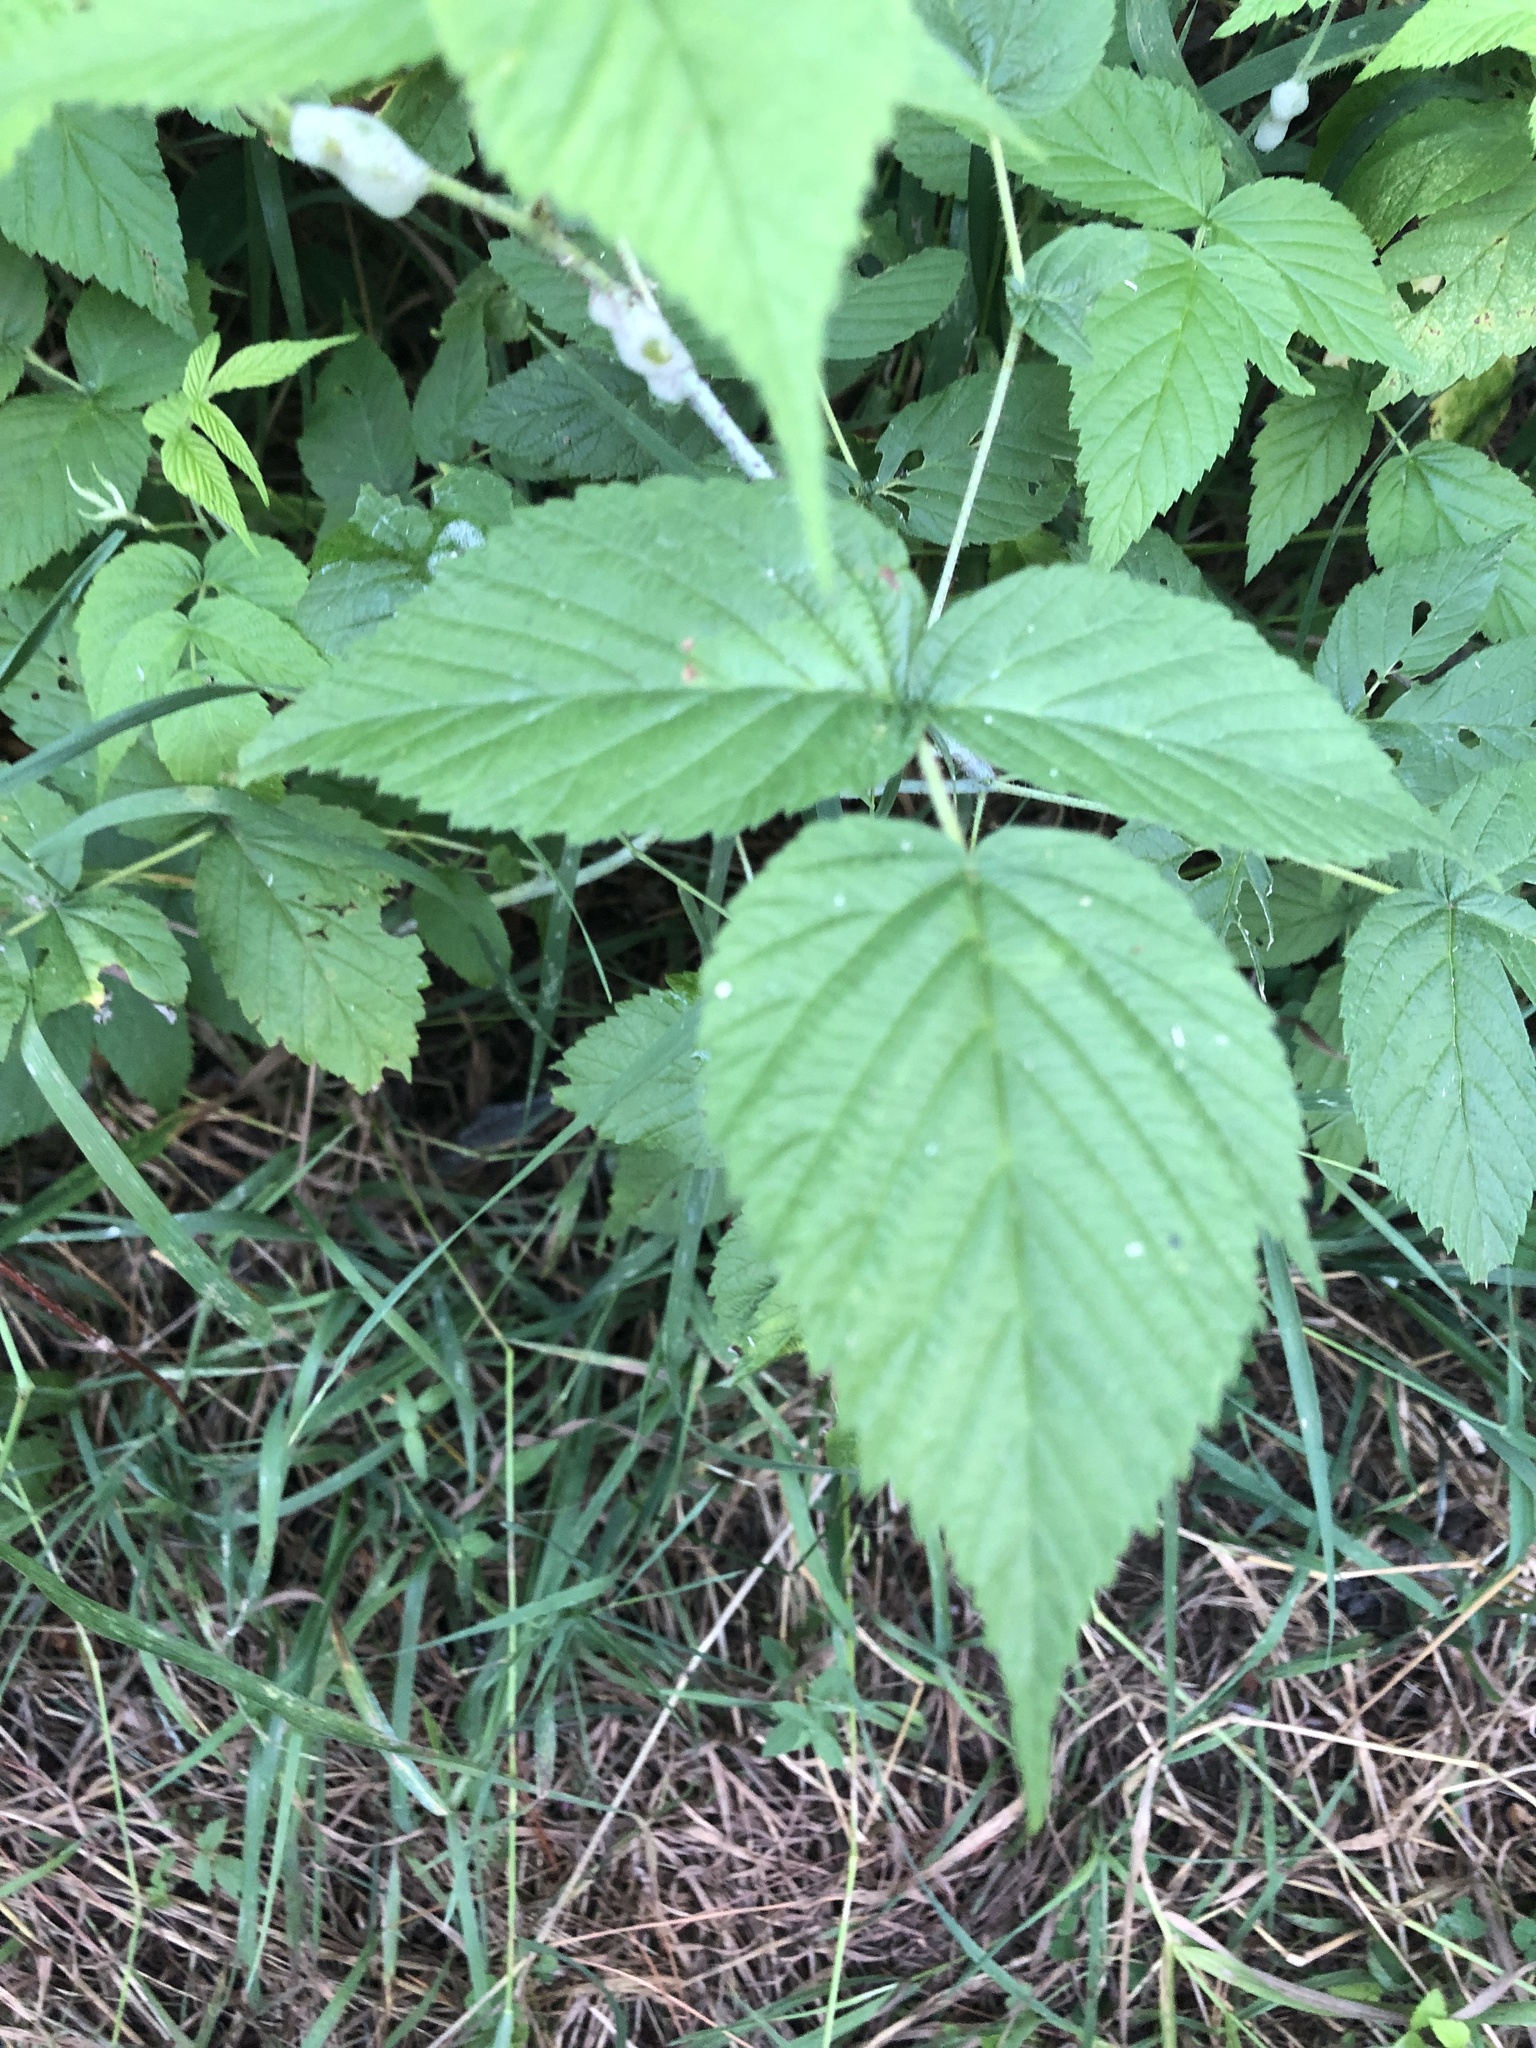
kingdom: Plantae
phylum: Tracheophyta
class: Magnoliopsida
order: Rosales
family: Rosaceae
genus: Rubus
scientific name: Rubus occidentalis
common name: Black raspberry
